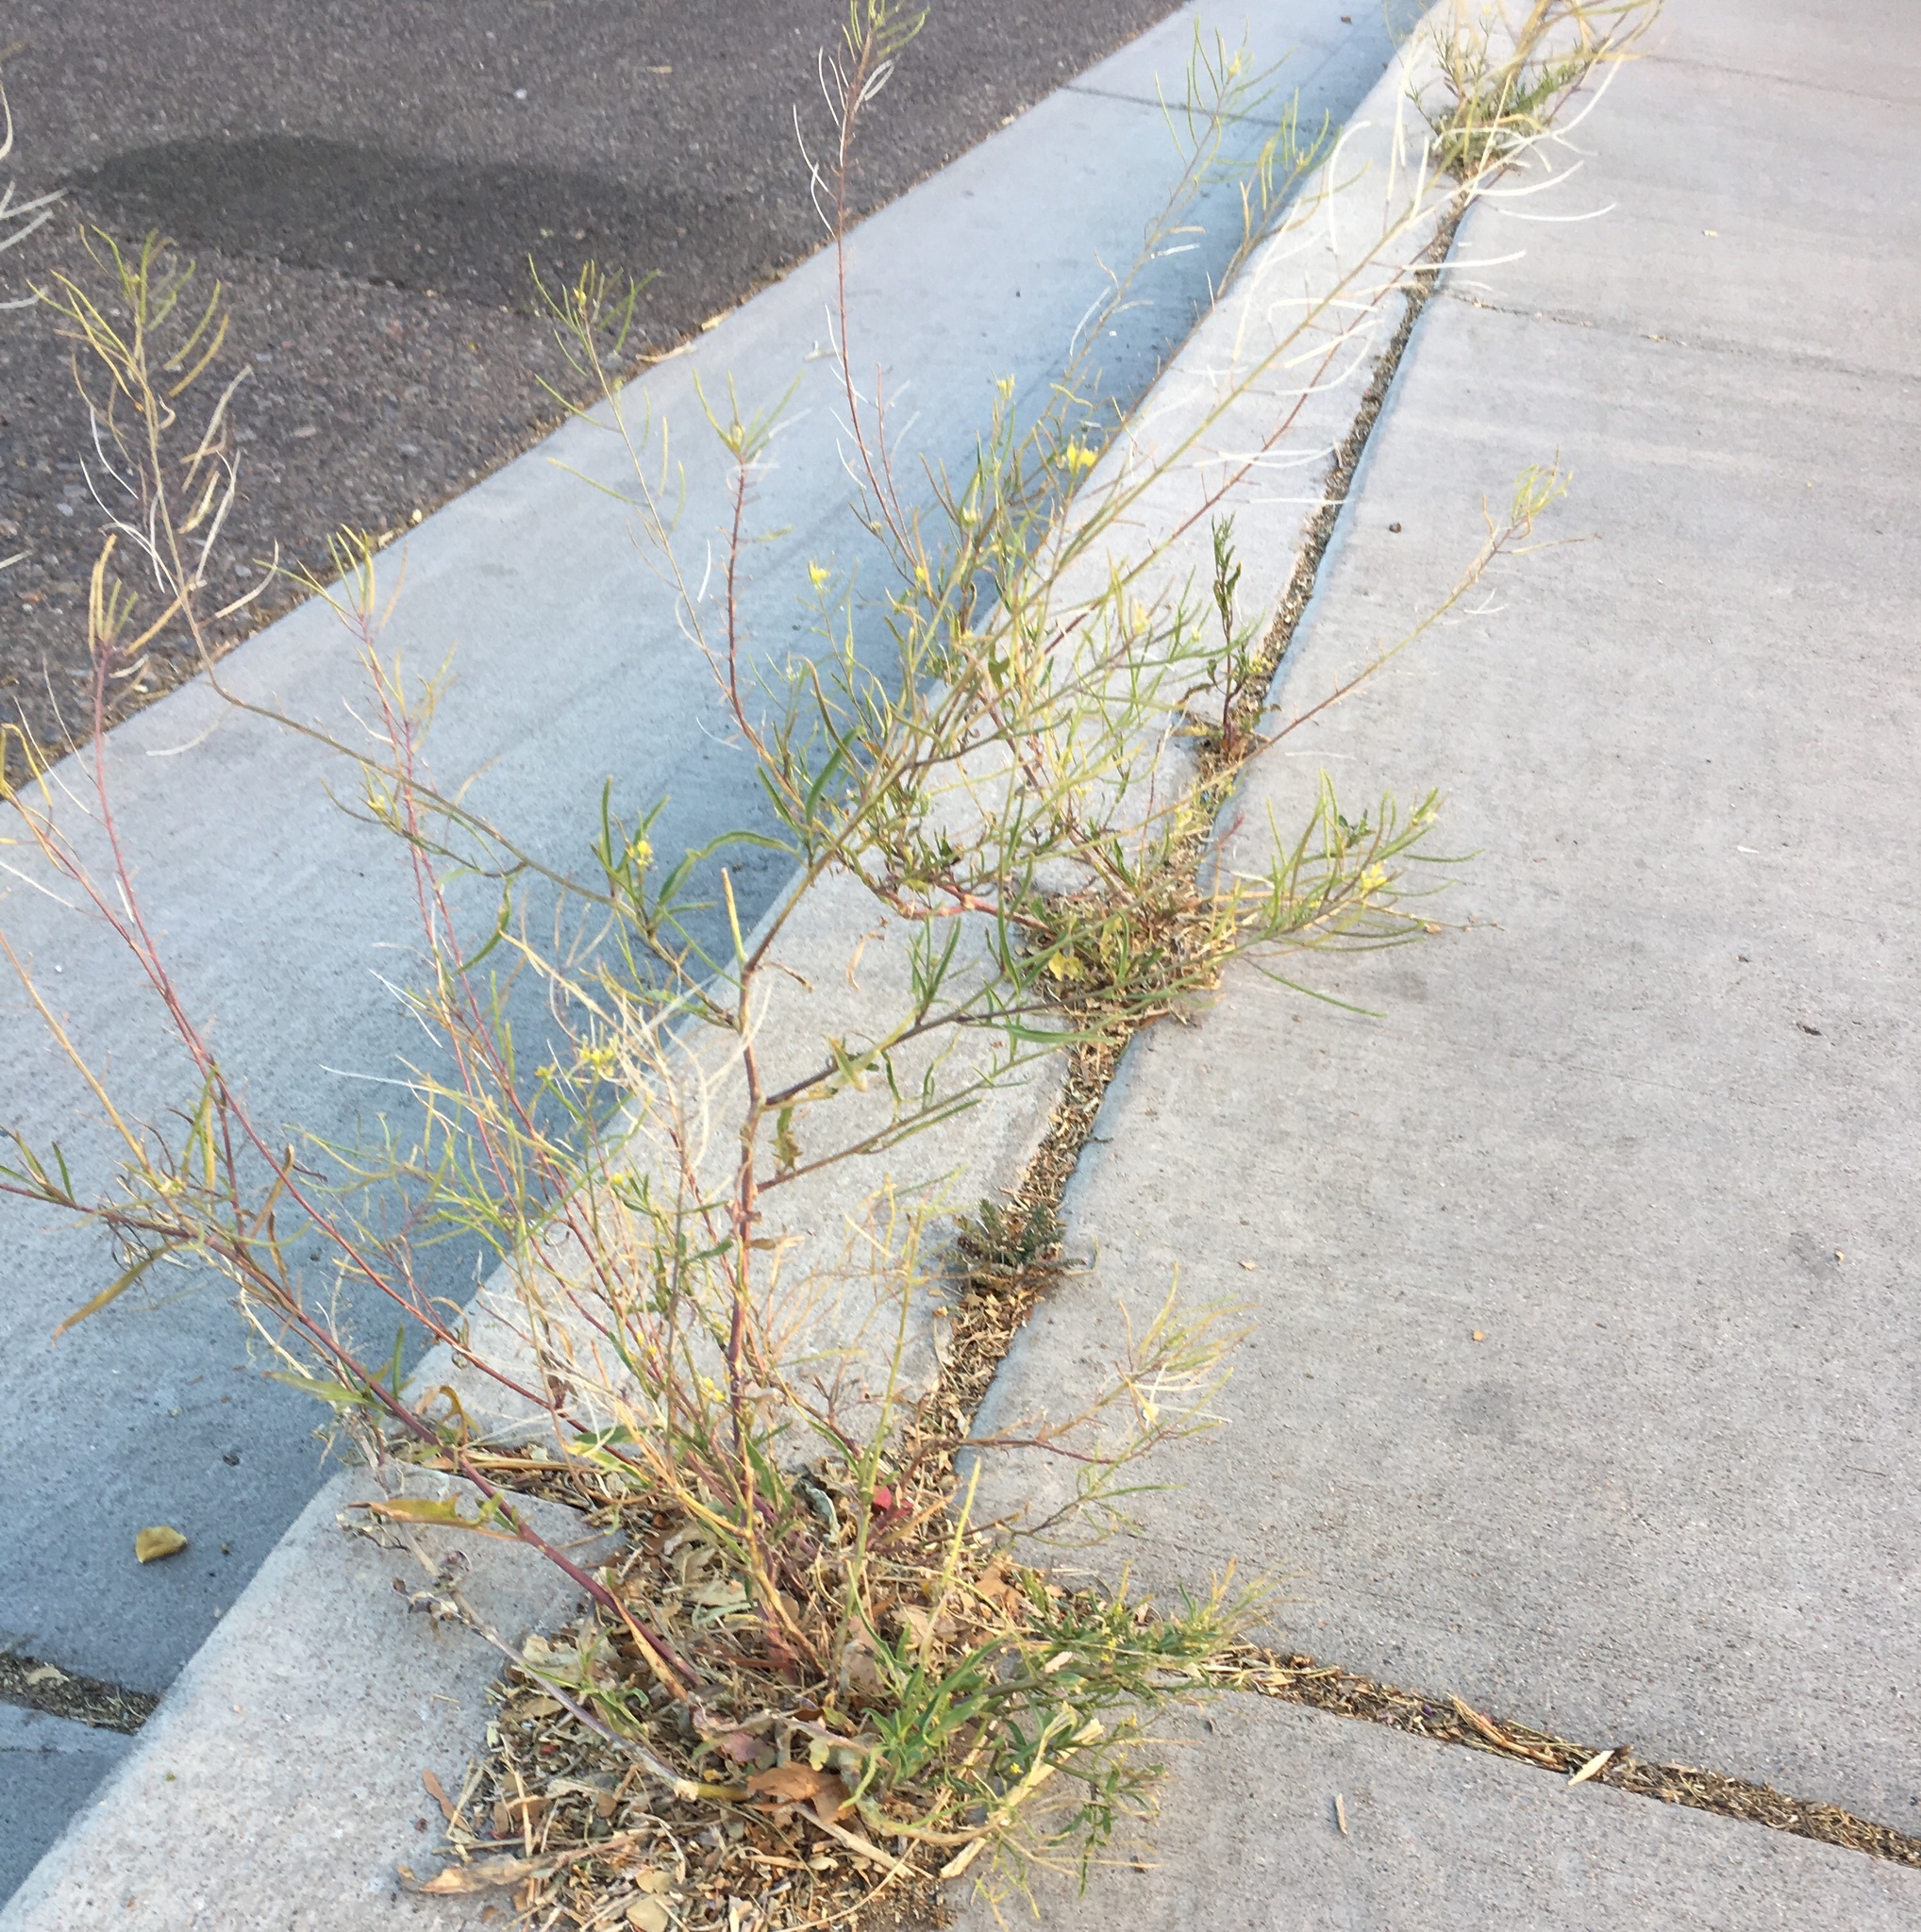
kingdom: Plantae
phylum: Tracheophyta
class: Magnoliopsida
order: Brassicales
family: Brassicaceae
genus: Sisymbrium
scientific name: Sisymbrium irio
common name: London rocket
